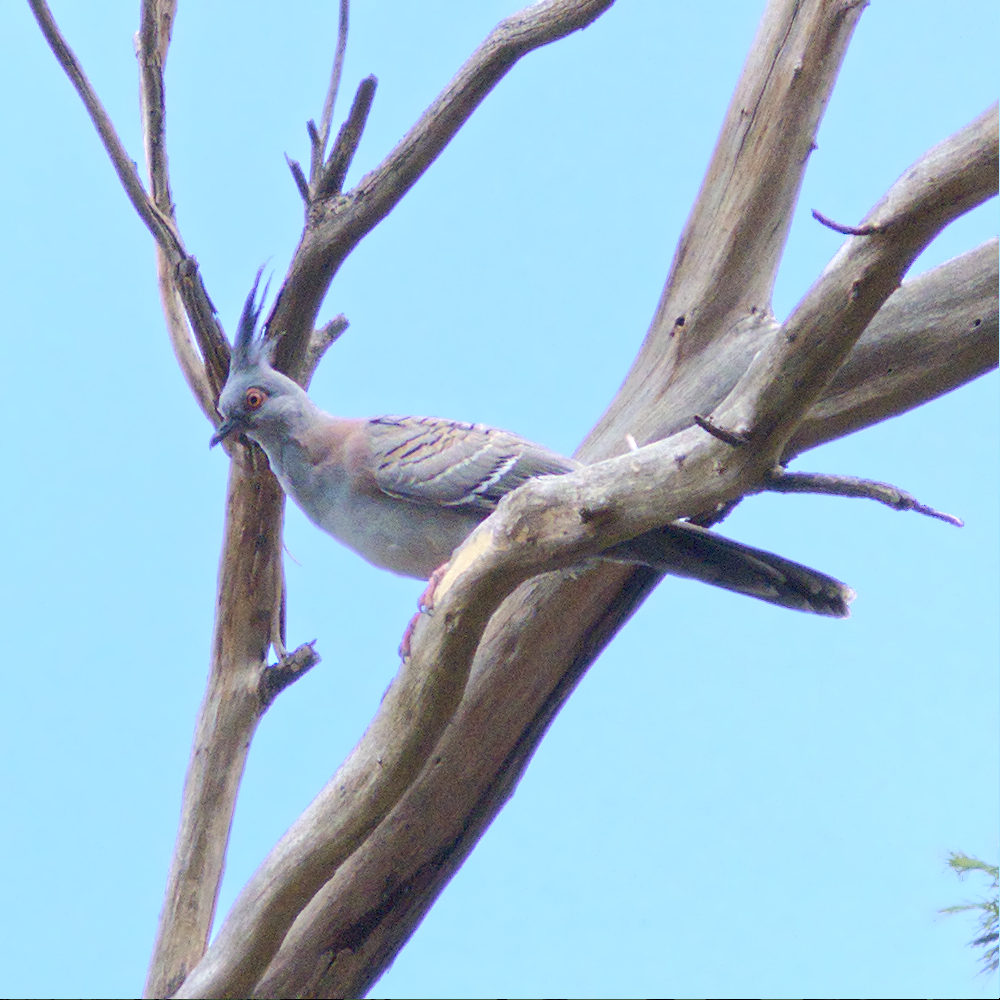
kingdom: Animalia
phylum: Chordata
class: Aves
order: Columbiformes
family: Columbidae
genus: Ocyphaps
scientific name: Ocyphaps lophotes
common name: Crested pigeon
